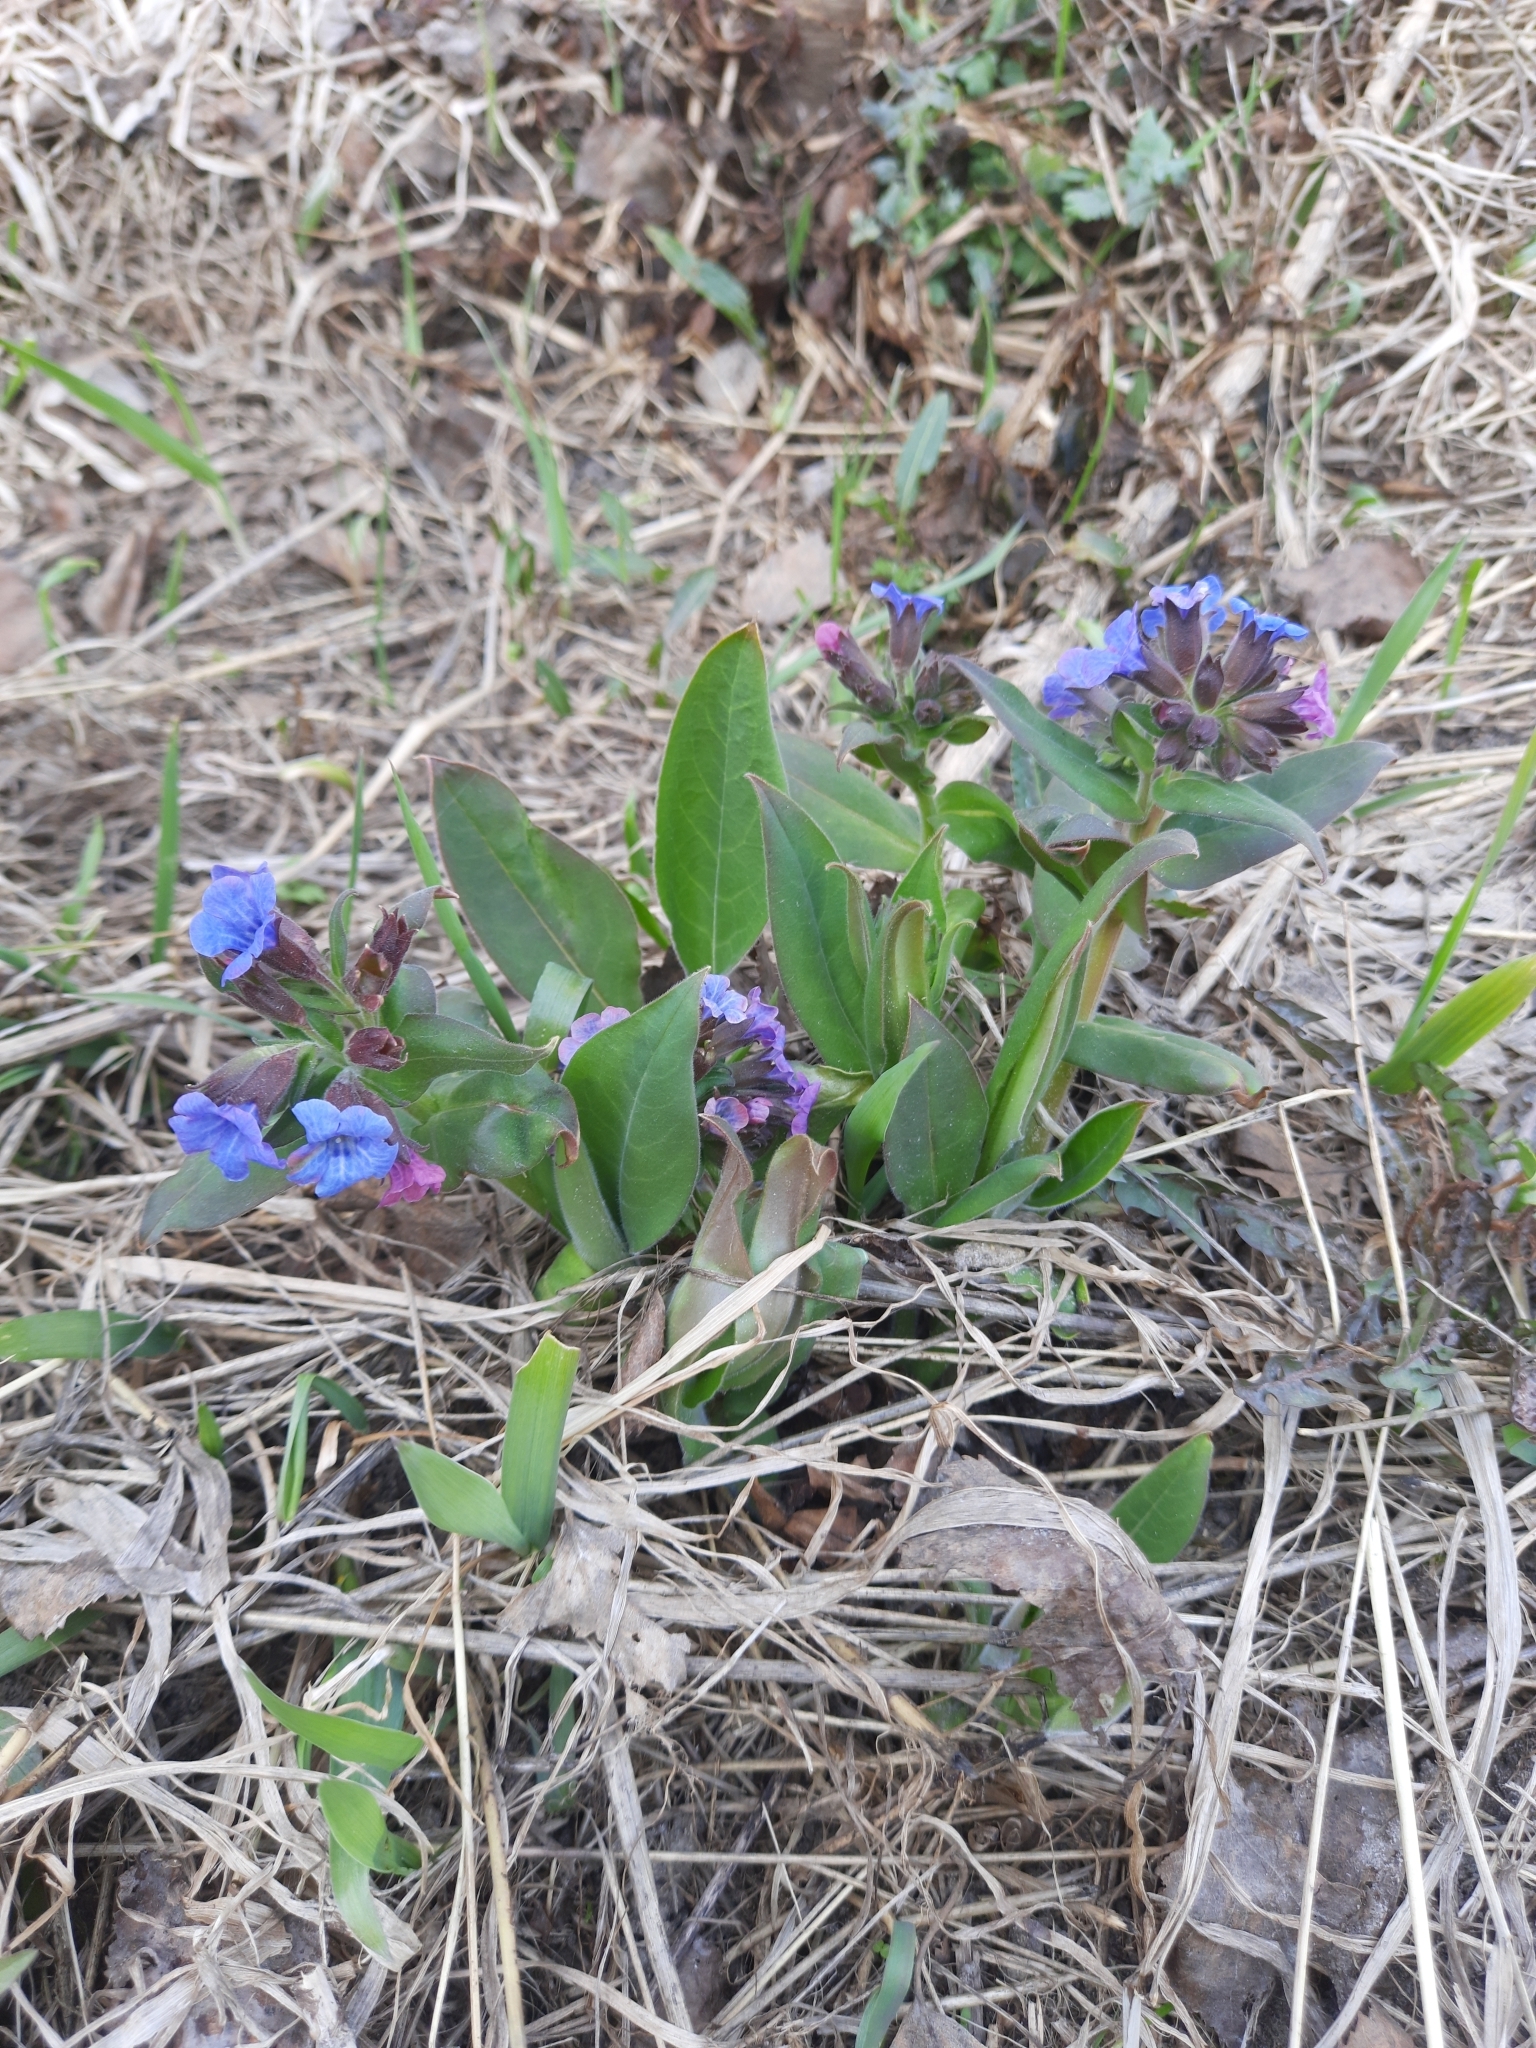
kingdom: Plantae
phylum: Tracheophyta
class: Magnoliopsida
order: Boraginales
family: Boraginaceae
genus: Pulmonaria
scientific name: Pulmonaria mollis
